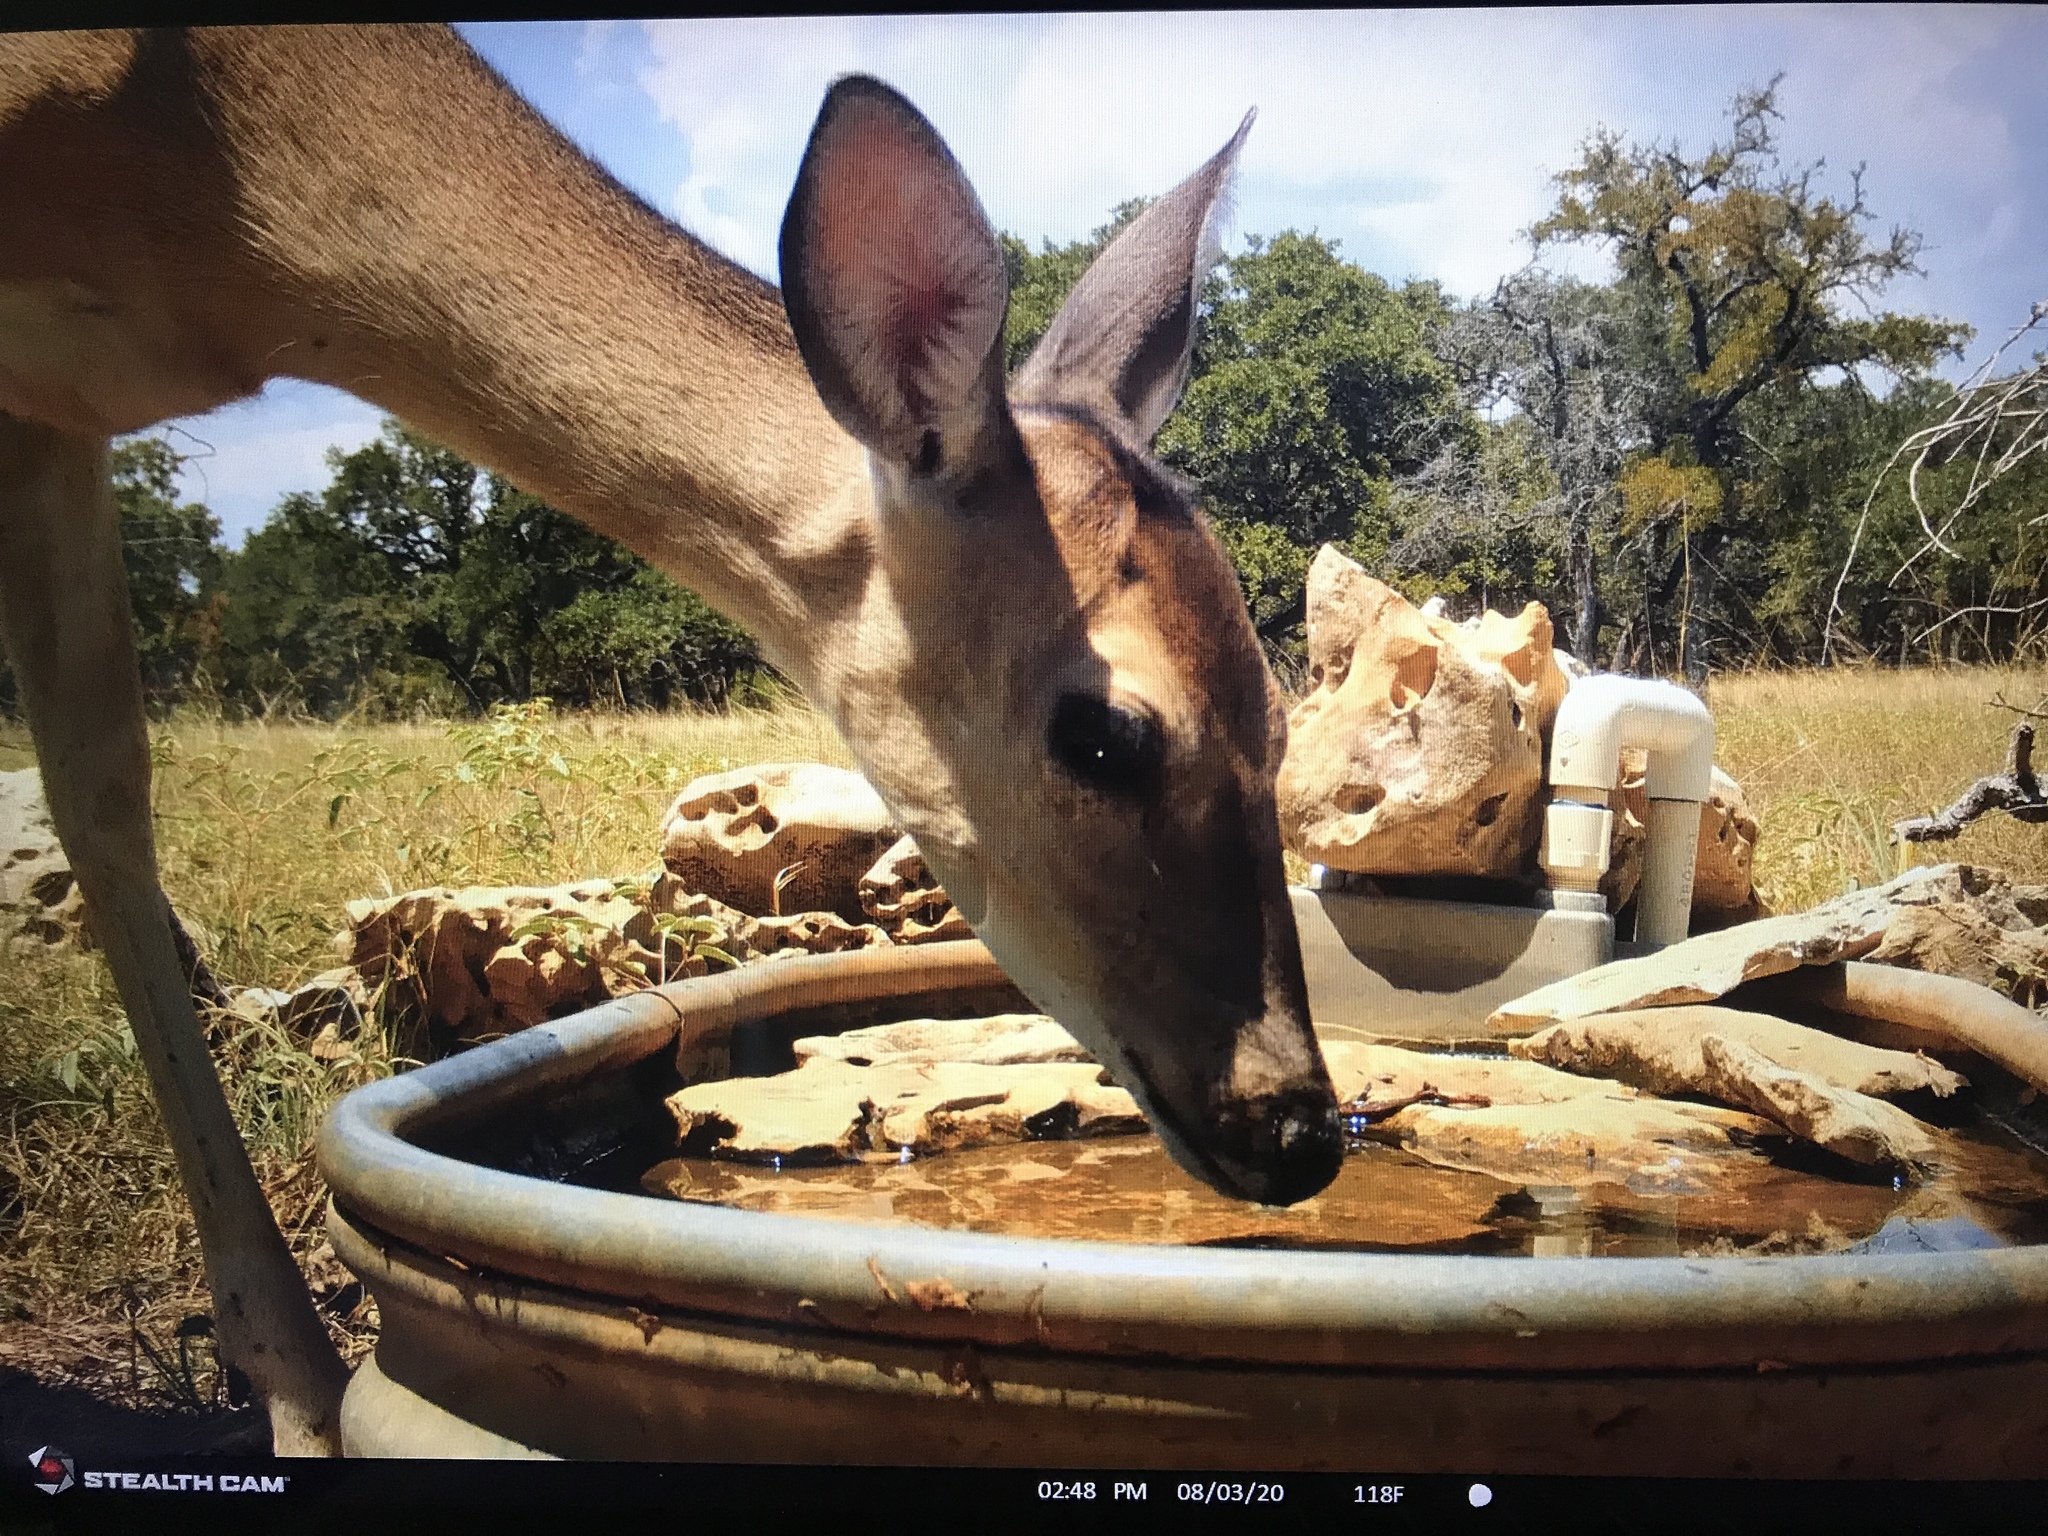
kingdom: Animalia
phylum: Chordata
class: Mammalia
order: Artiodactyla
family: Cervidae
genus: Odocoileus
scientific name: Odocoileus virginianus
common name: White-tailed deer
